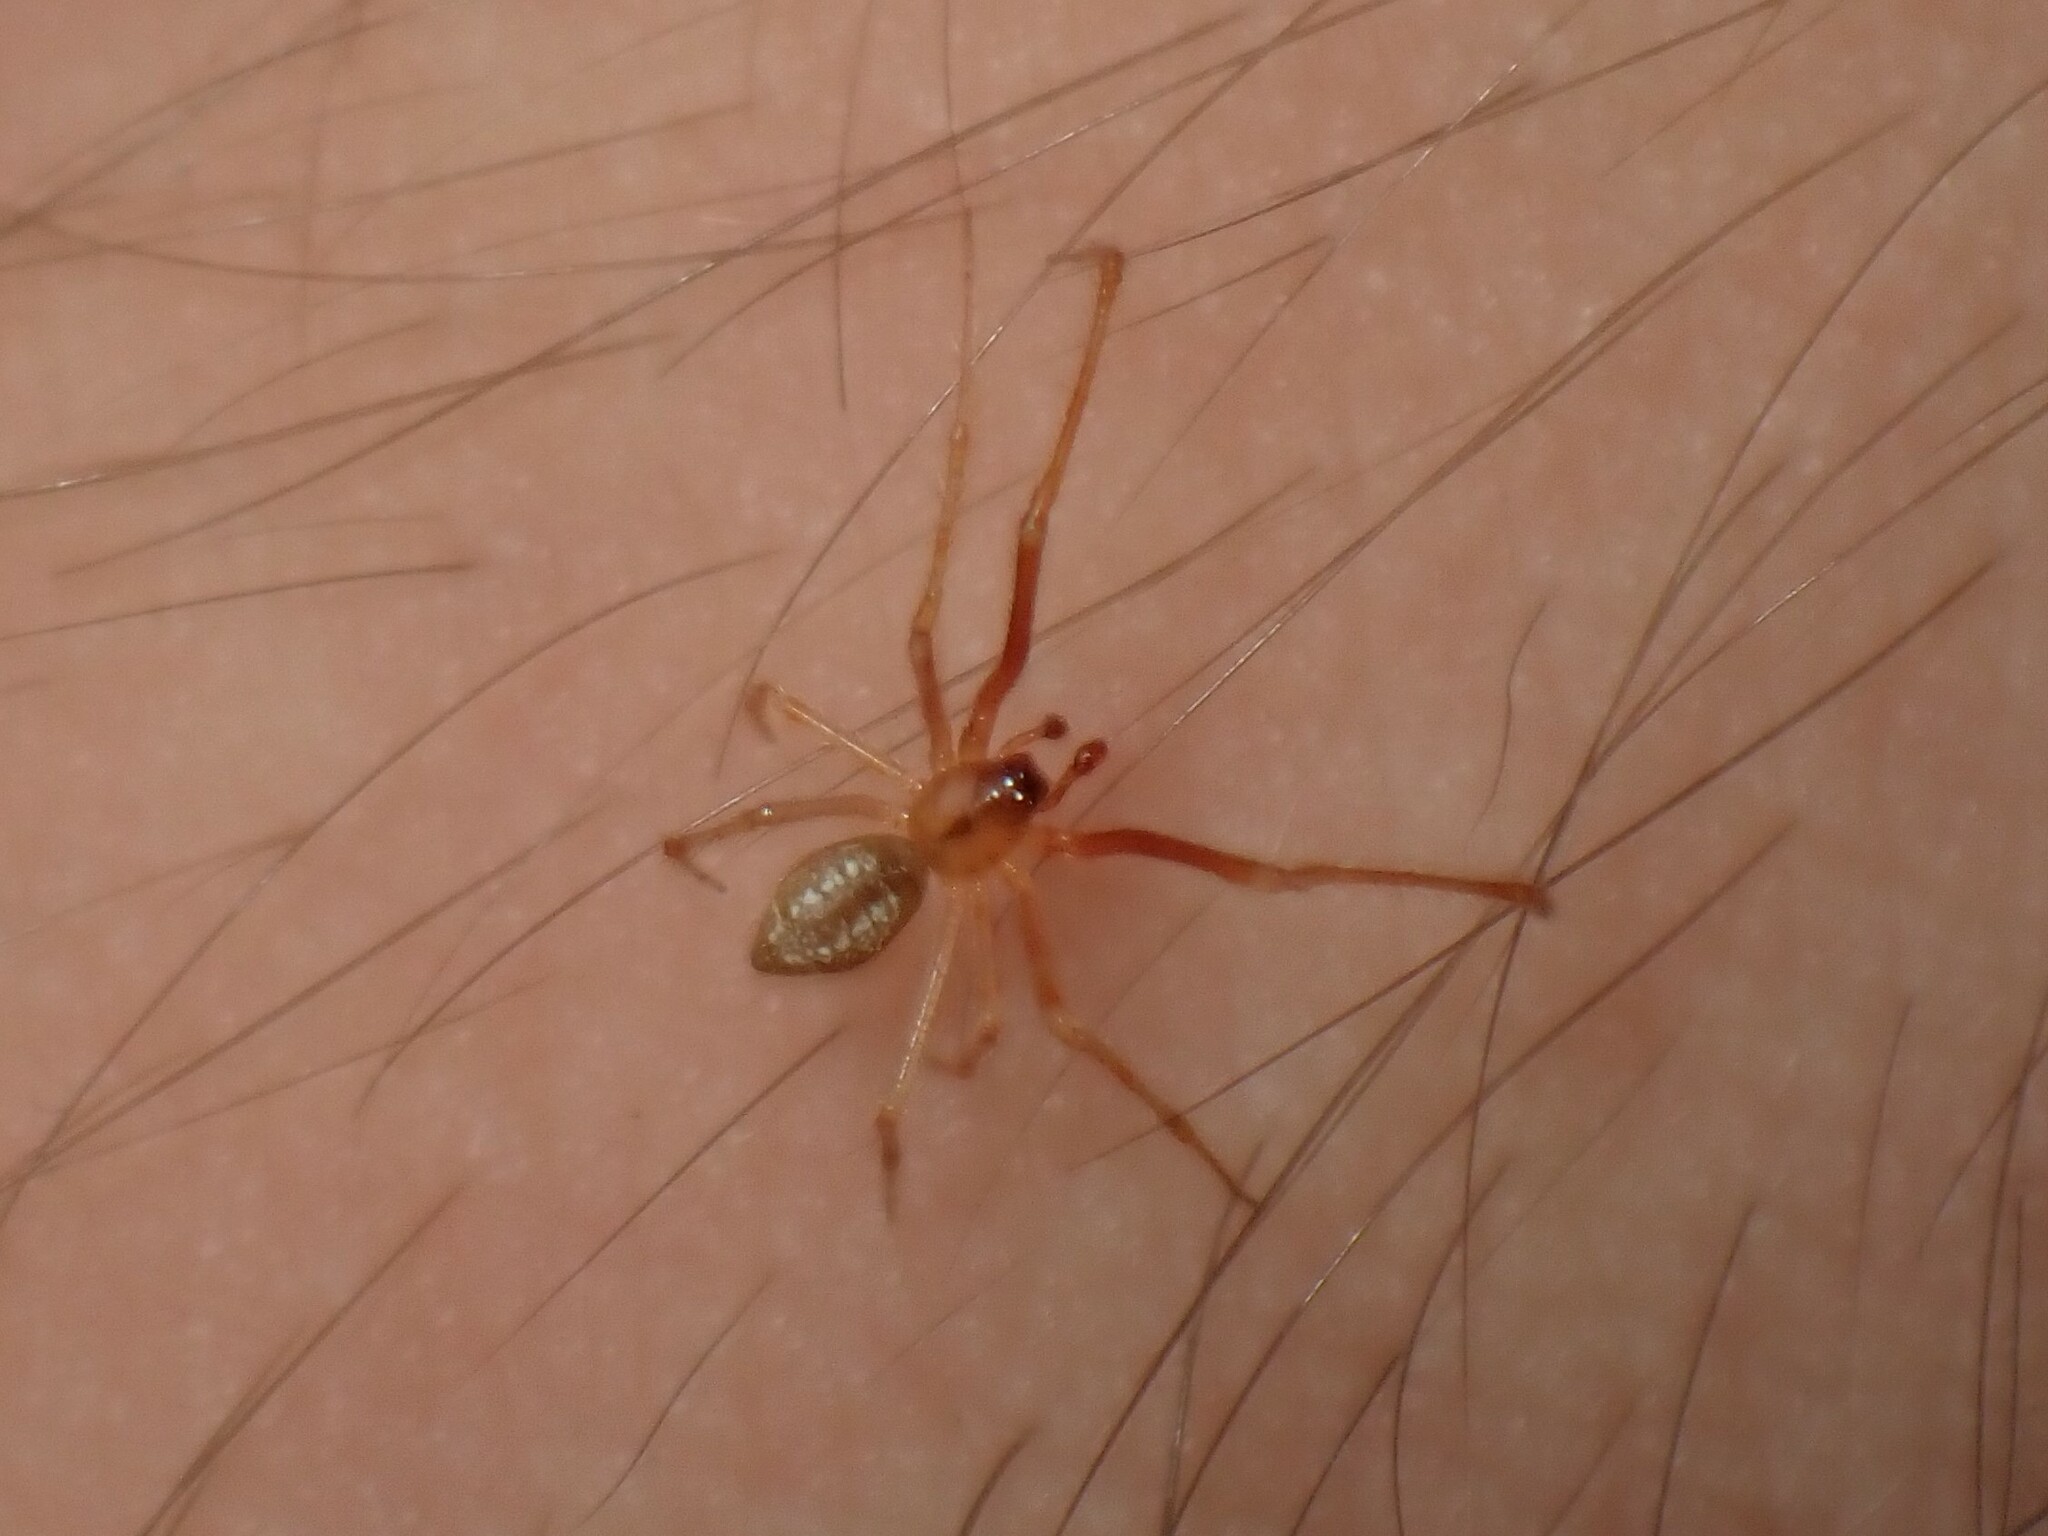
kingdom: Animalia
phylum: Arthropoda
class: Arachnida
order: Araneae
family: Theridiidae
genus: Cryptachaea
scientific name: Cryptachaea meraukensis
